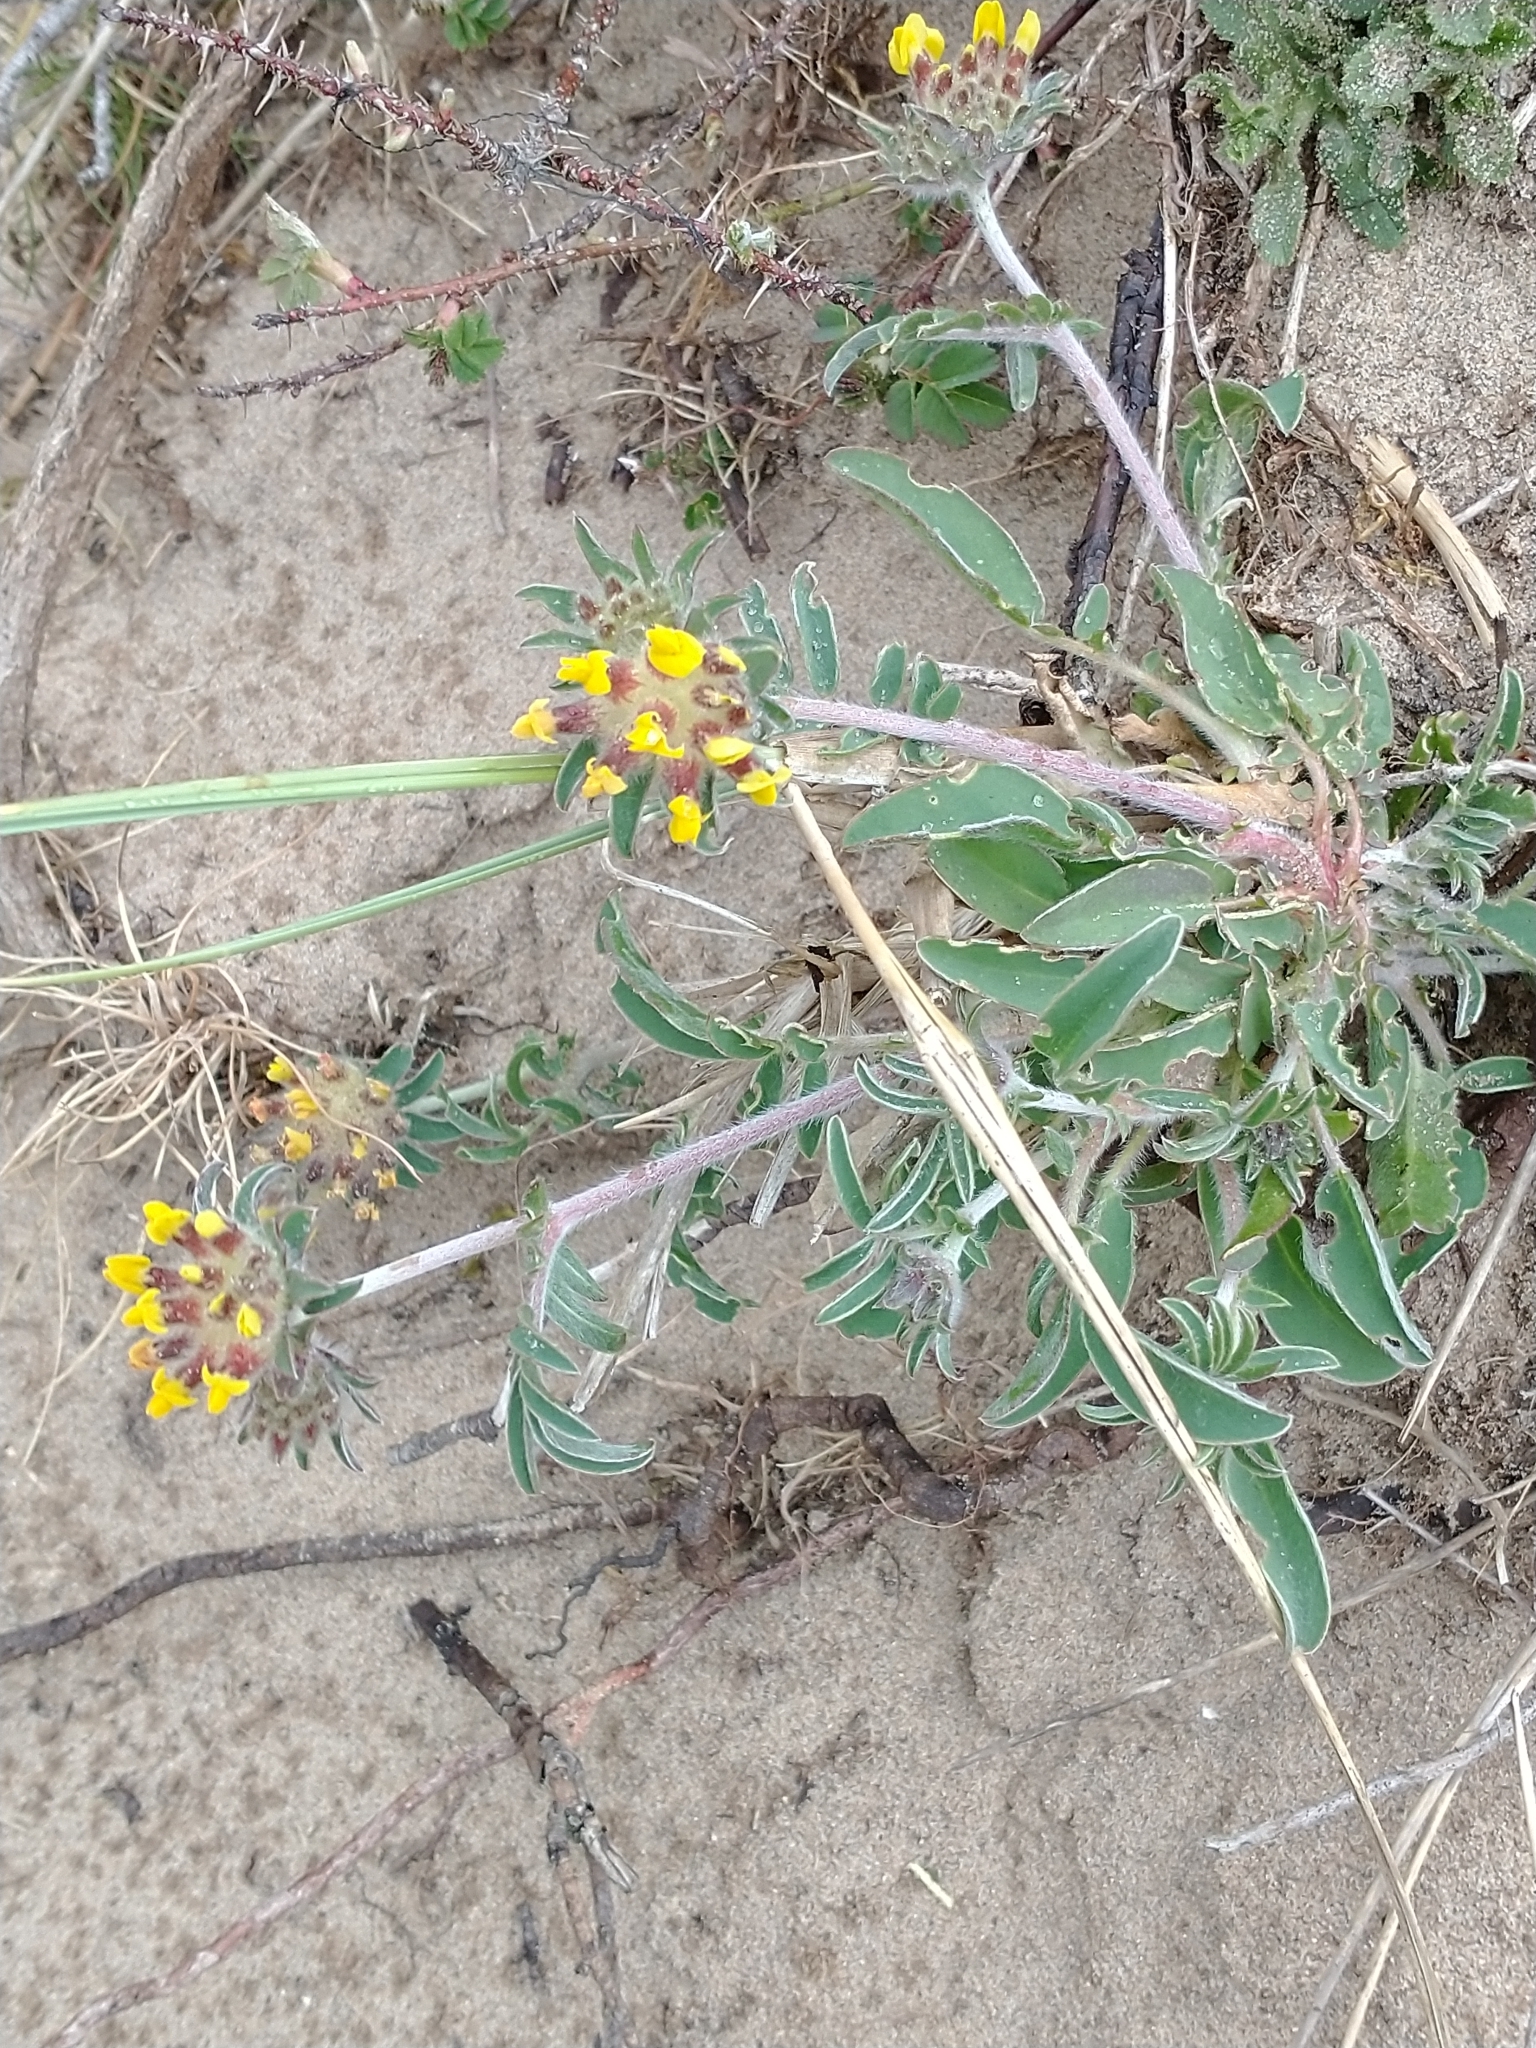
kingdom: Plantae
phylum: Tracheophyta
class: Magnoliopsida
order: Fabales
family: Fabaceae
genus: Anthyllis
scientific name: Anthyllis vulneraria
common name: Kidney vetch
